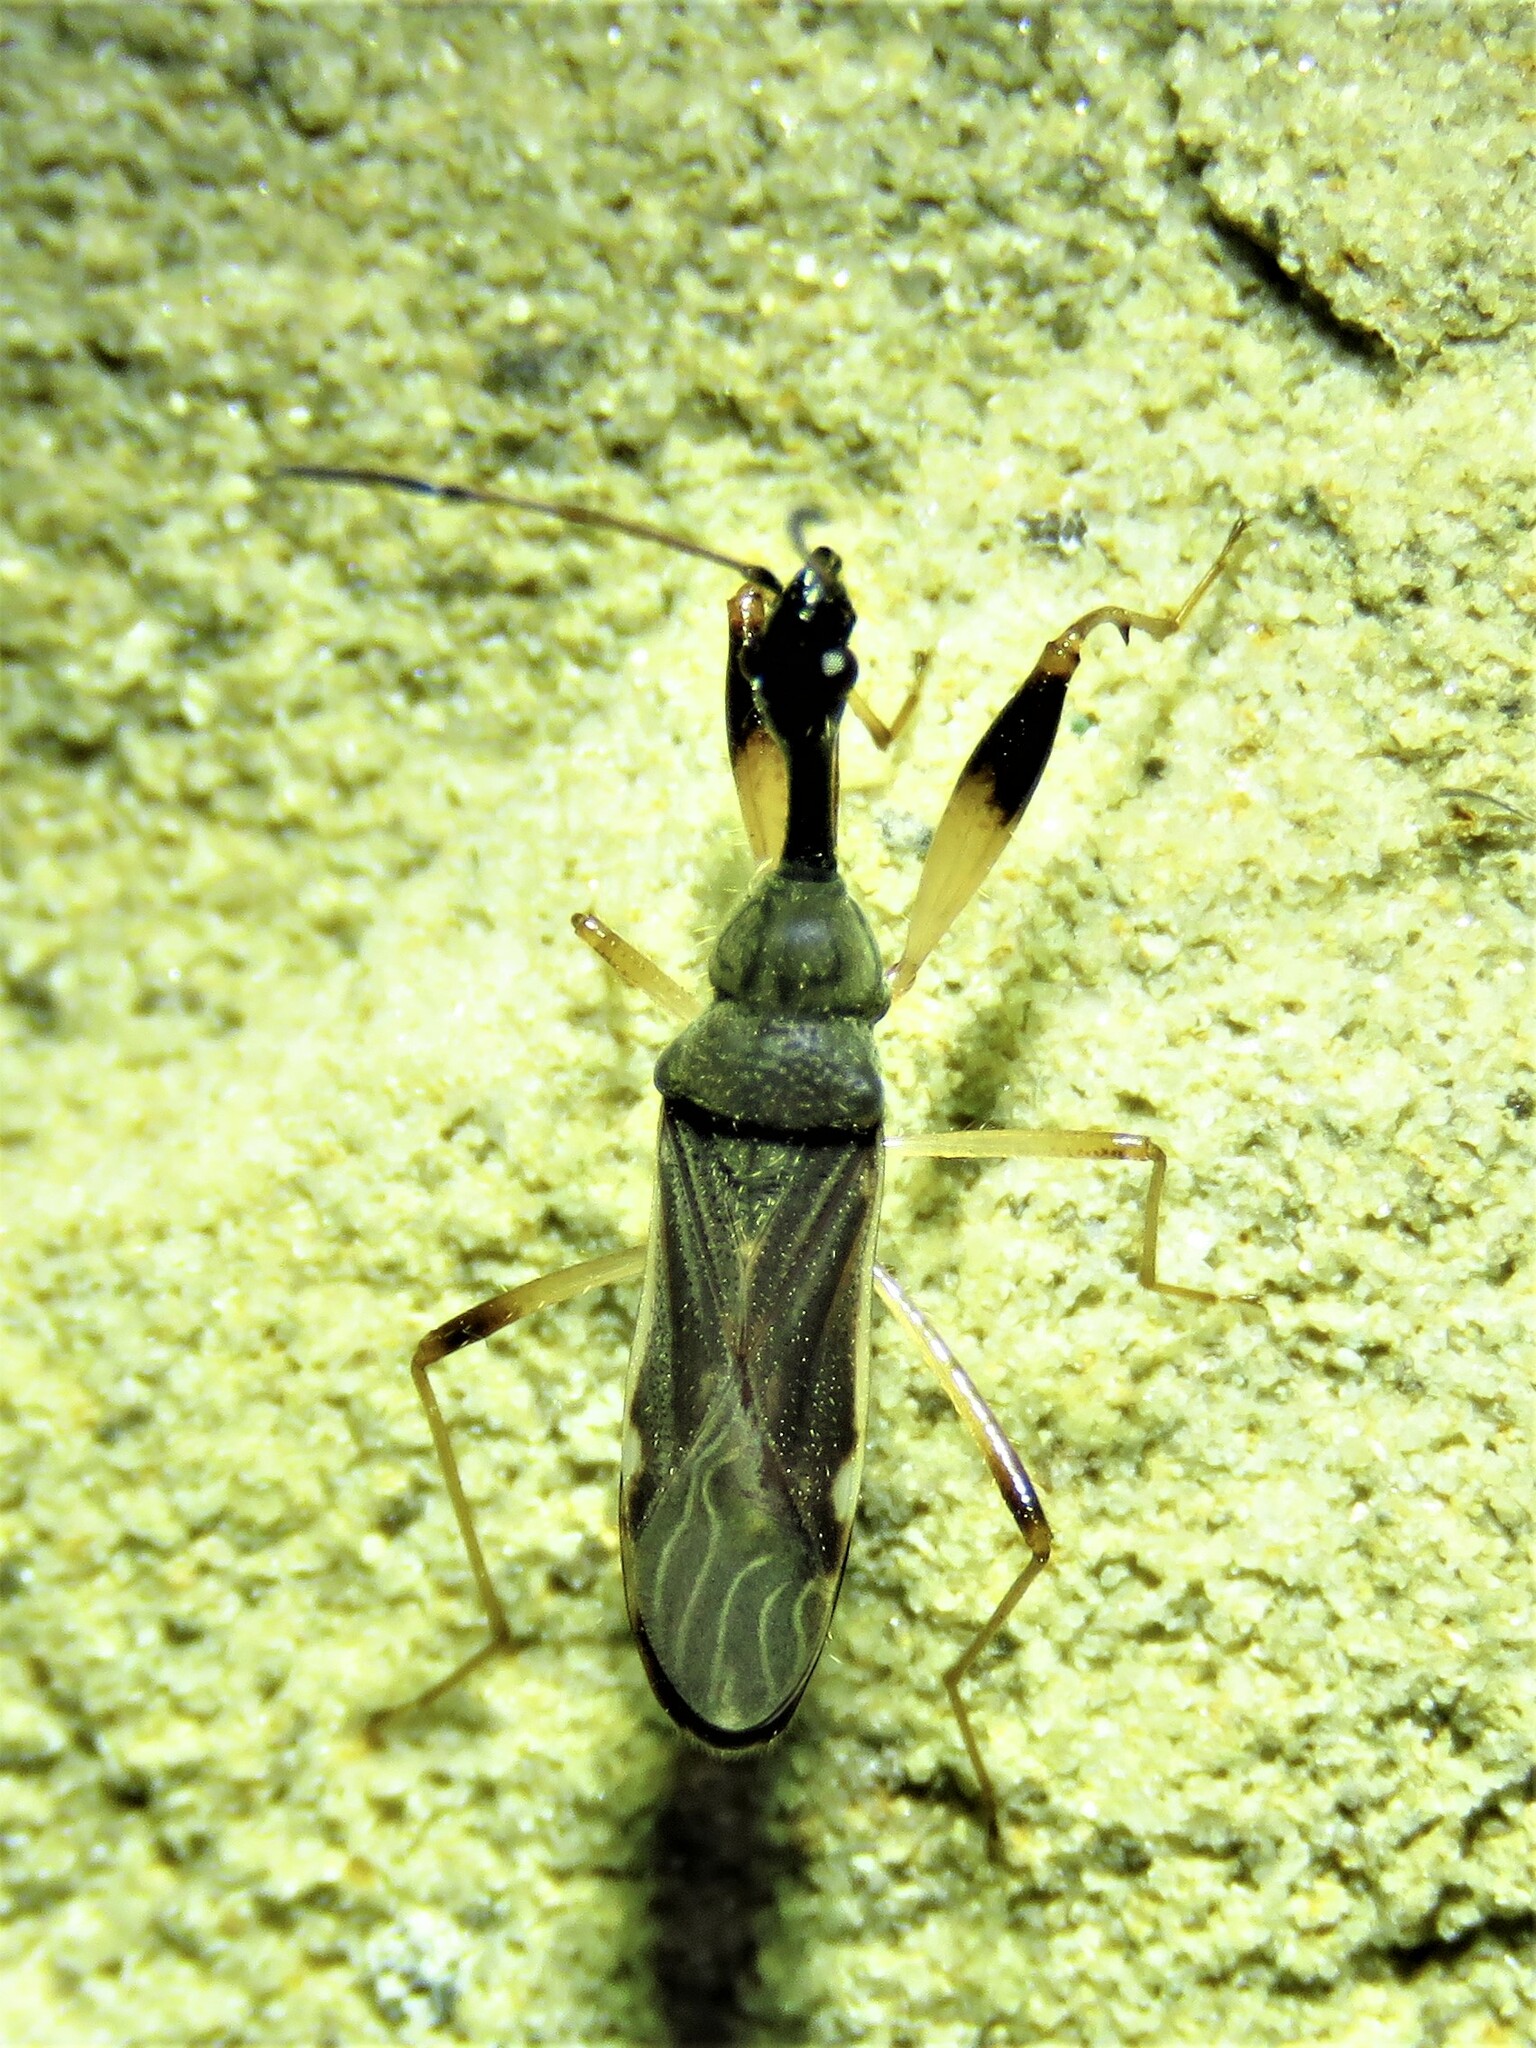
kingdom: Animalia
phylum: Arthropoda
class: Insecta
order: Hemiptera
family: Rhyparochromidae
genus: Myodocha
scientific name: Myodocha serripes
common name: Long-necked seed bug
